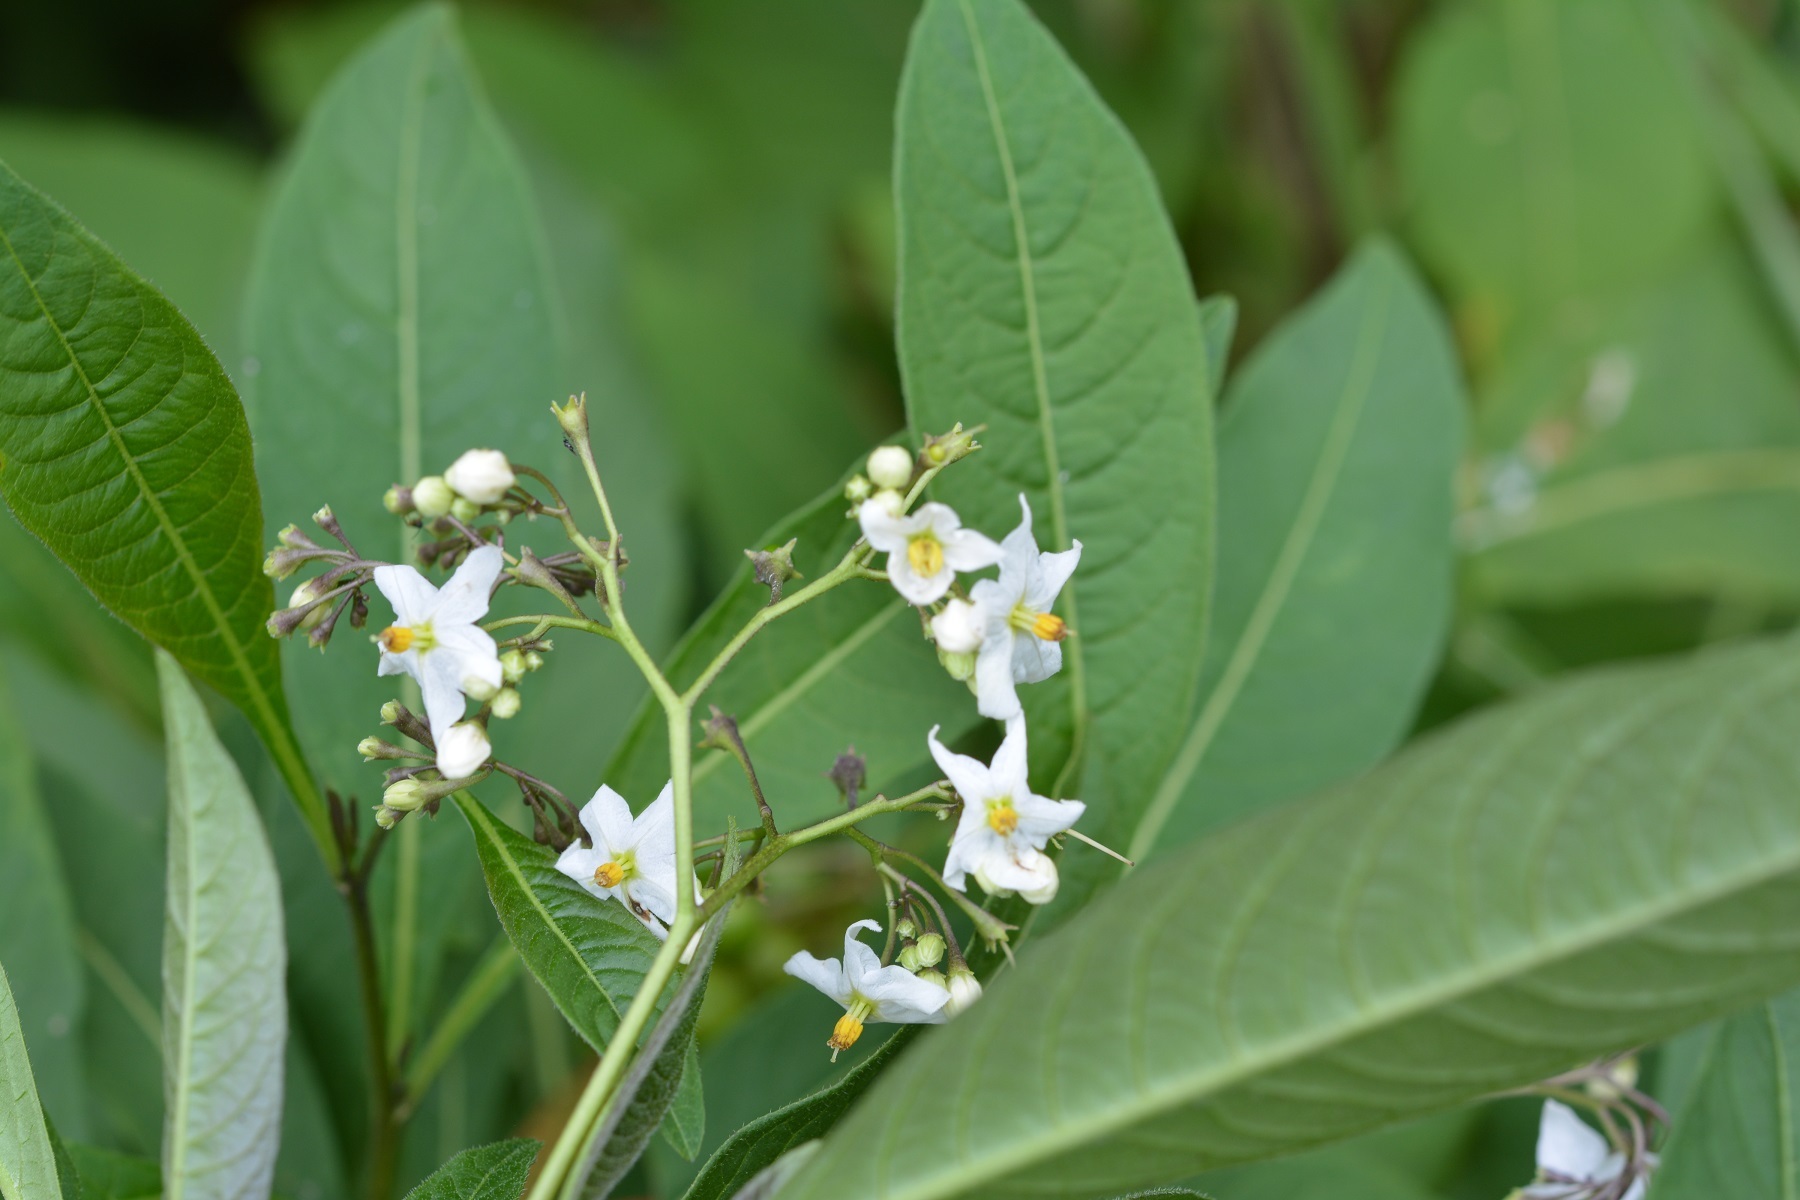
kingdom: Plantae
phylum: Tracheophyta
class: Magnoliopsida
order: Solanales
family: Solanaceae
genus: Solanum
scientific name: Solanum pubigerum
